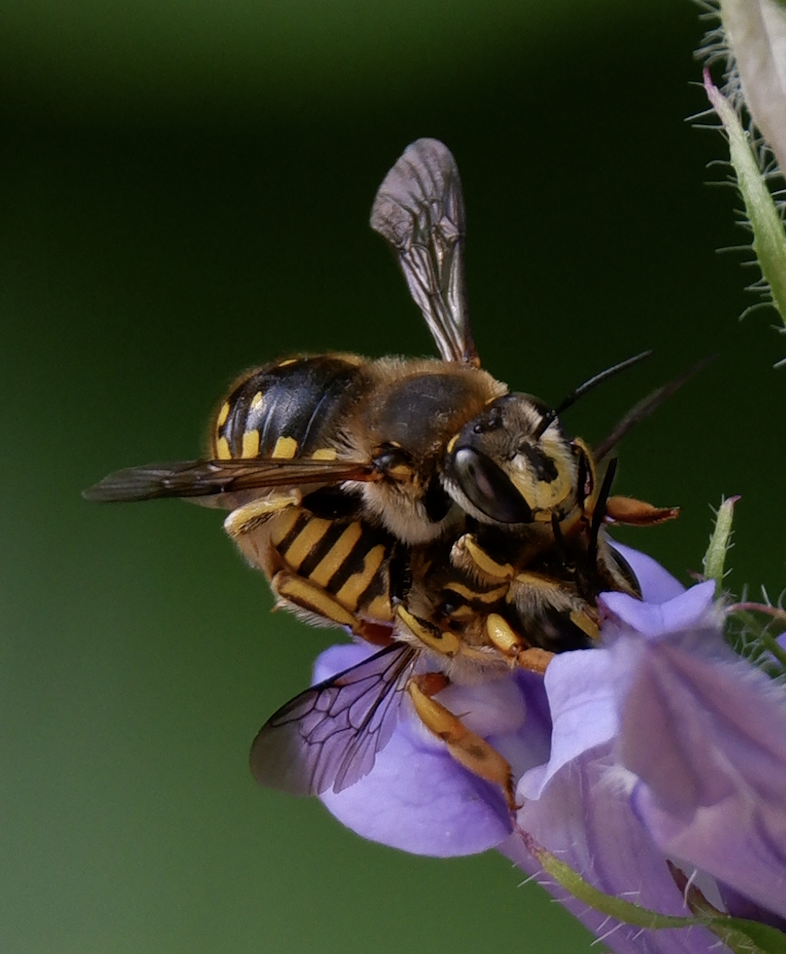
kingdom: Animalia
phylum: Arthropoda
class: Insecta
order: Hymenoptera
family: Megachilidae
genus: Anthidium
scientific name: Anthidium manicatum
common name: Wool carder bee
